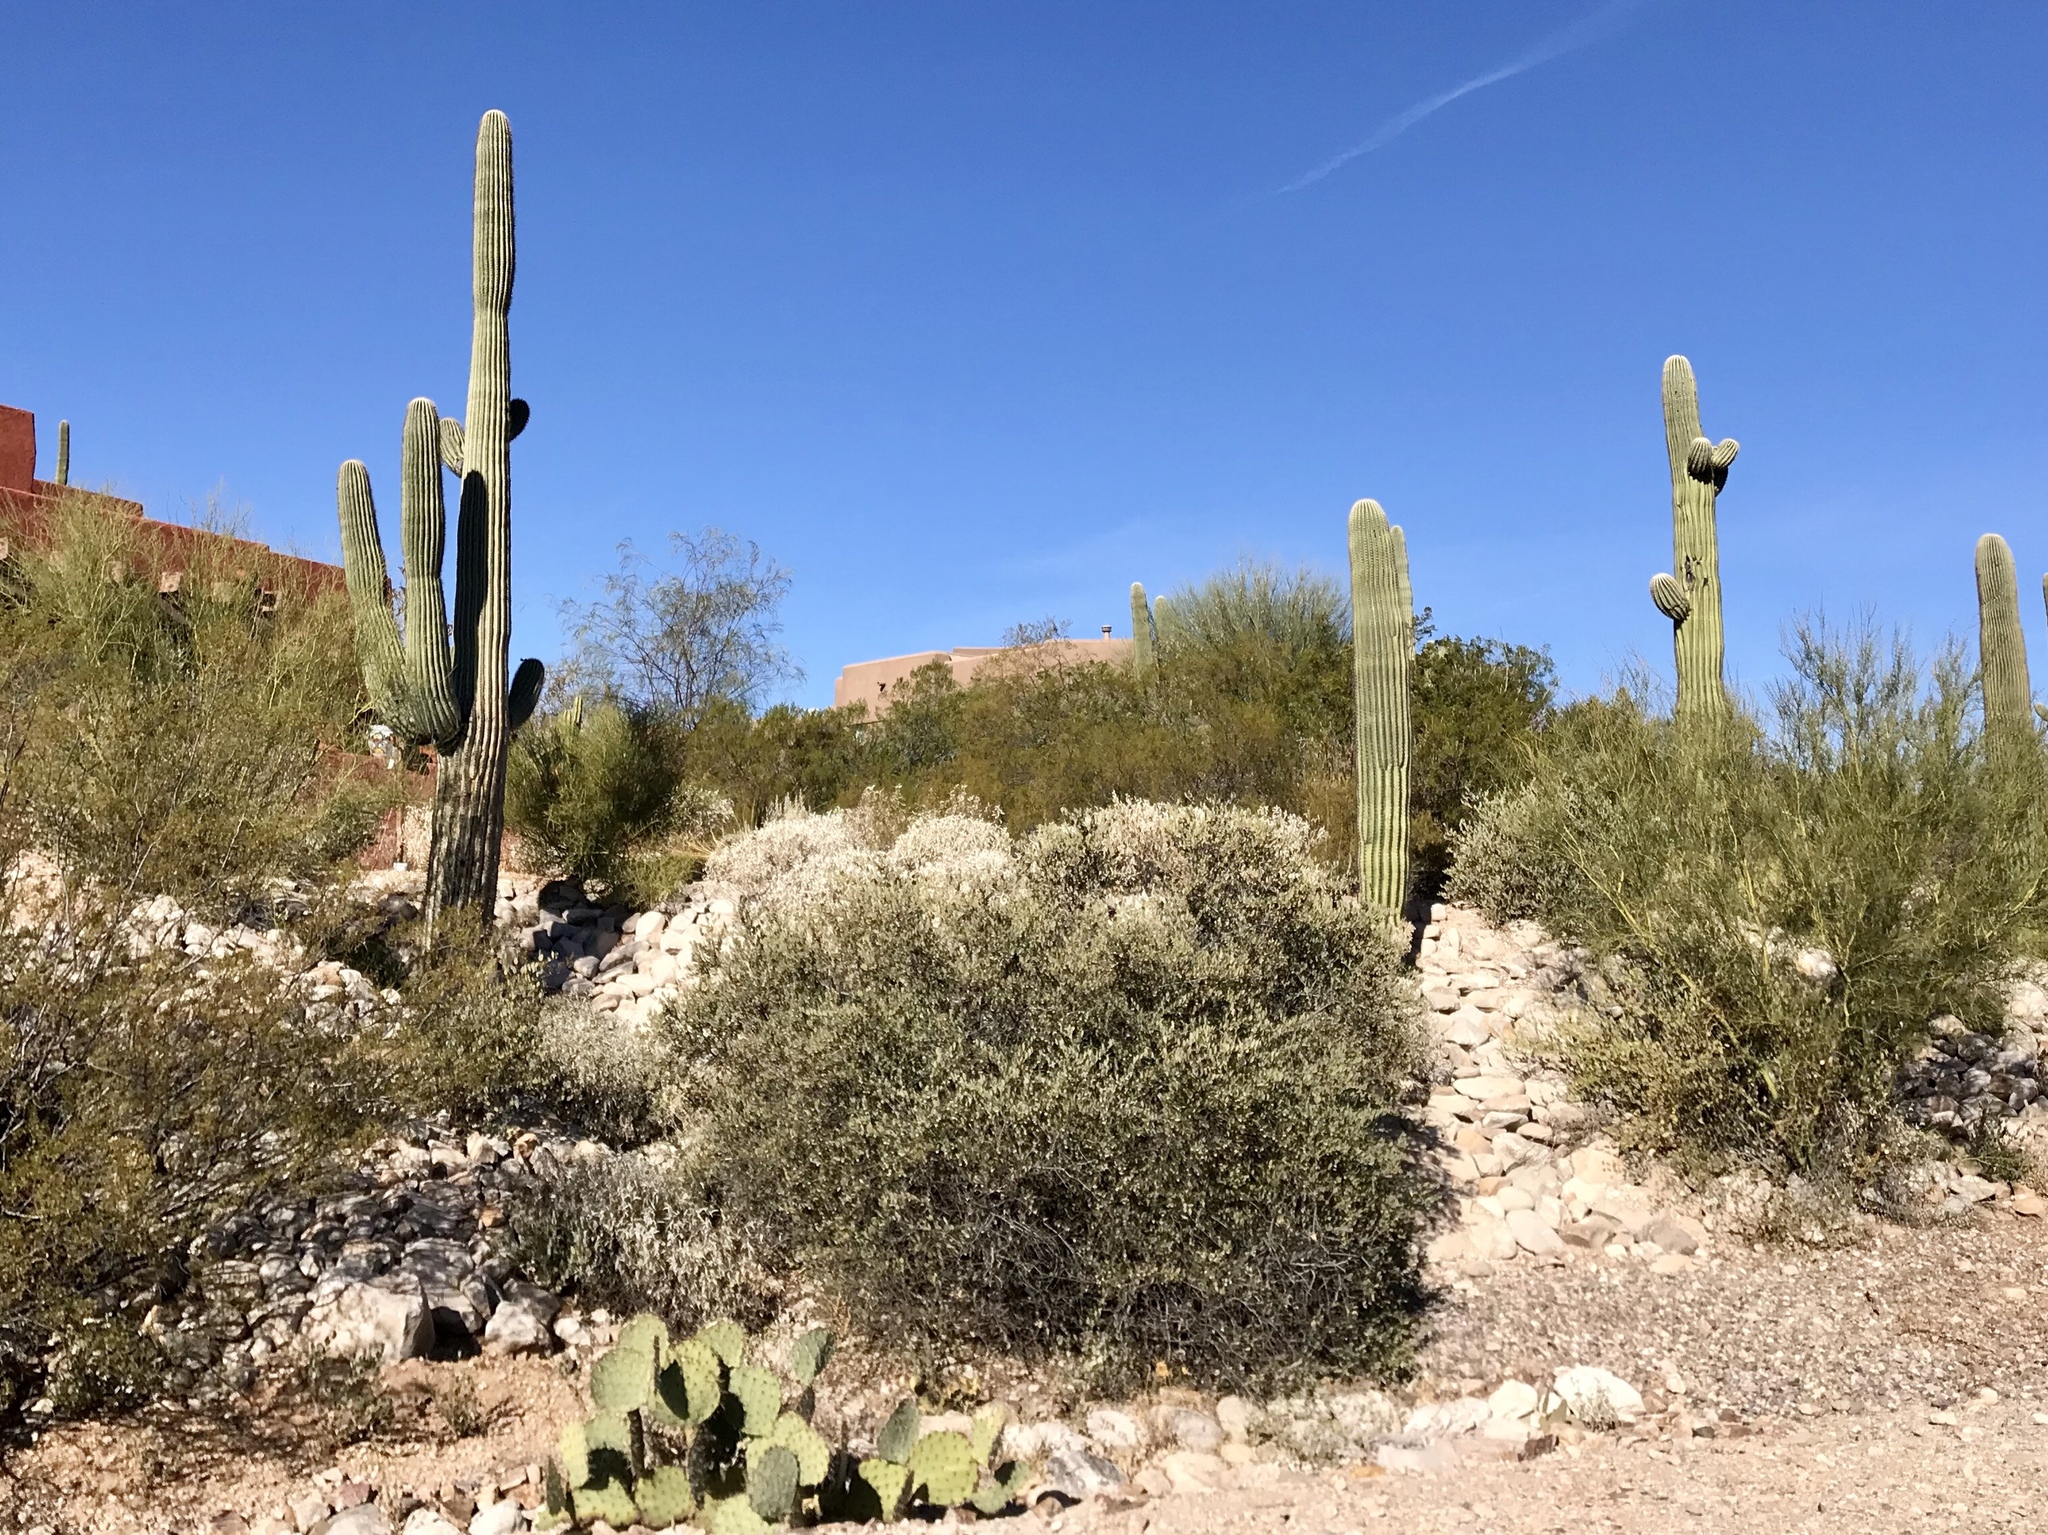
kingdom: Plantae
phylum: Tracheophyta
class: Magnoliopsida
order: Caryophyllales
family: Cactaceae
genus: Carnegiea
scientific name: Carnegiea gigantea
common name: Saguaro
